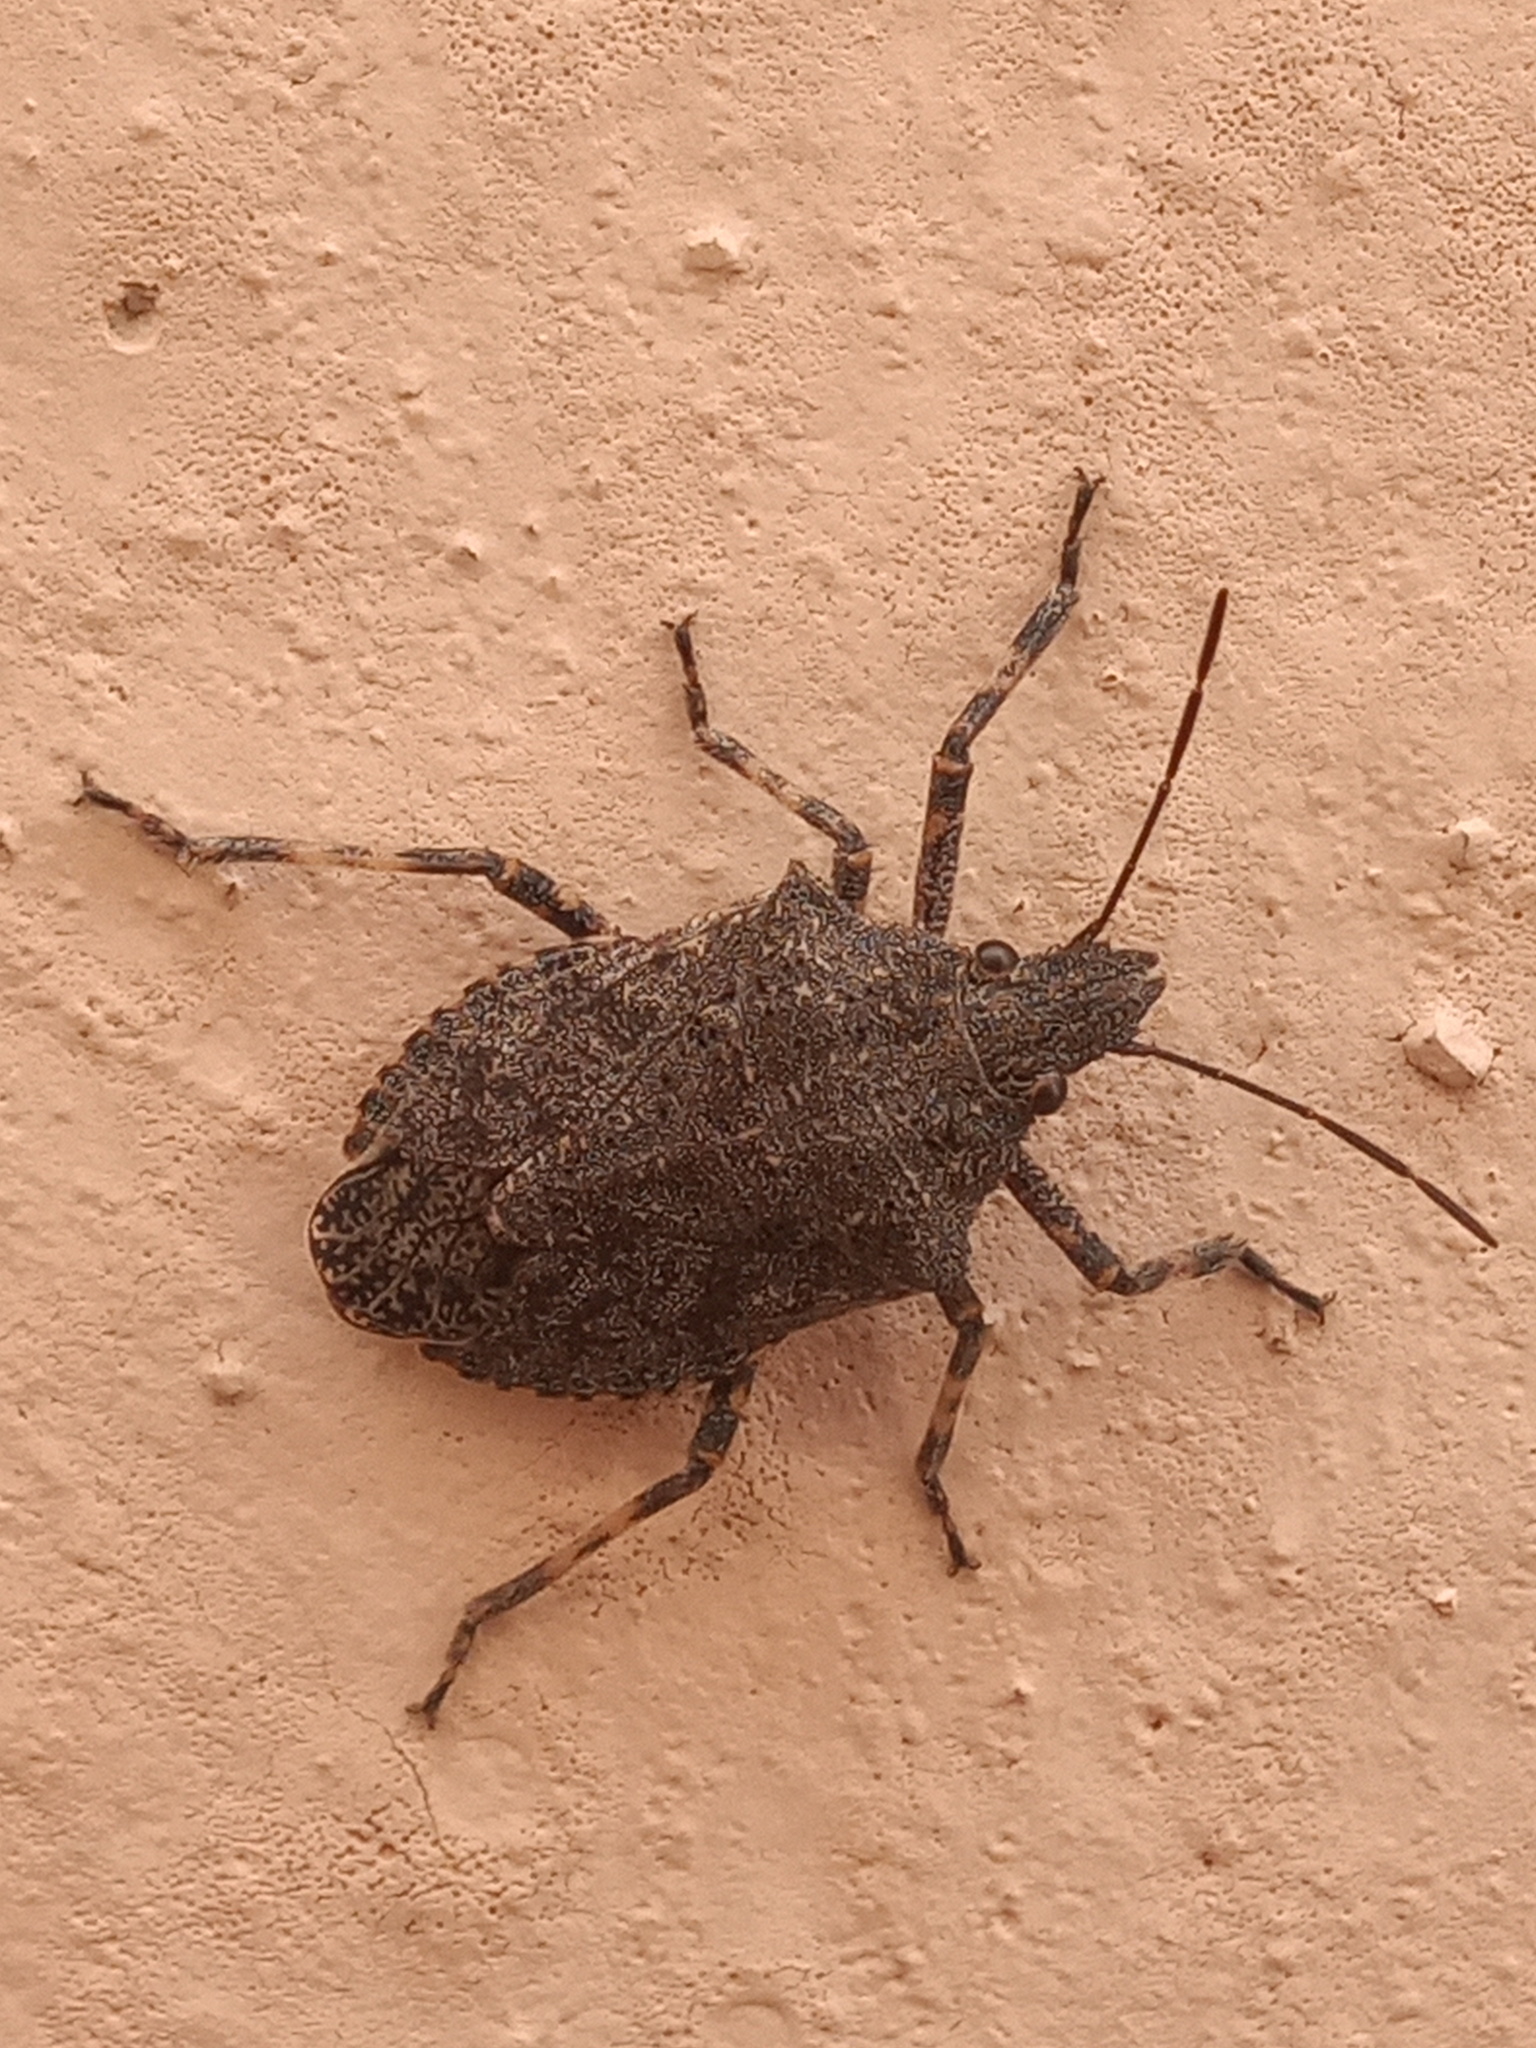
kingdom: Animalia
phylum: Arthropoda
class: Insecta
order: Hemiptera
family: Pentatomidae
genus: Brochymena
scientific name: Brochymena sulcata
